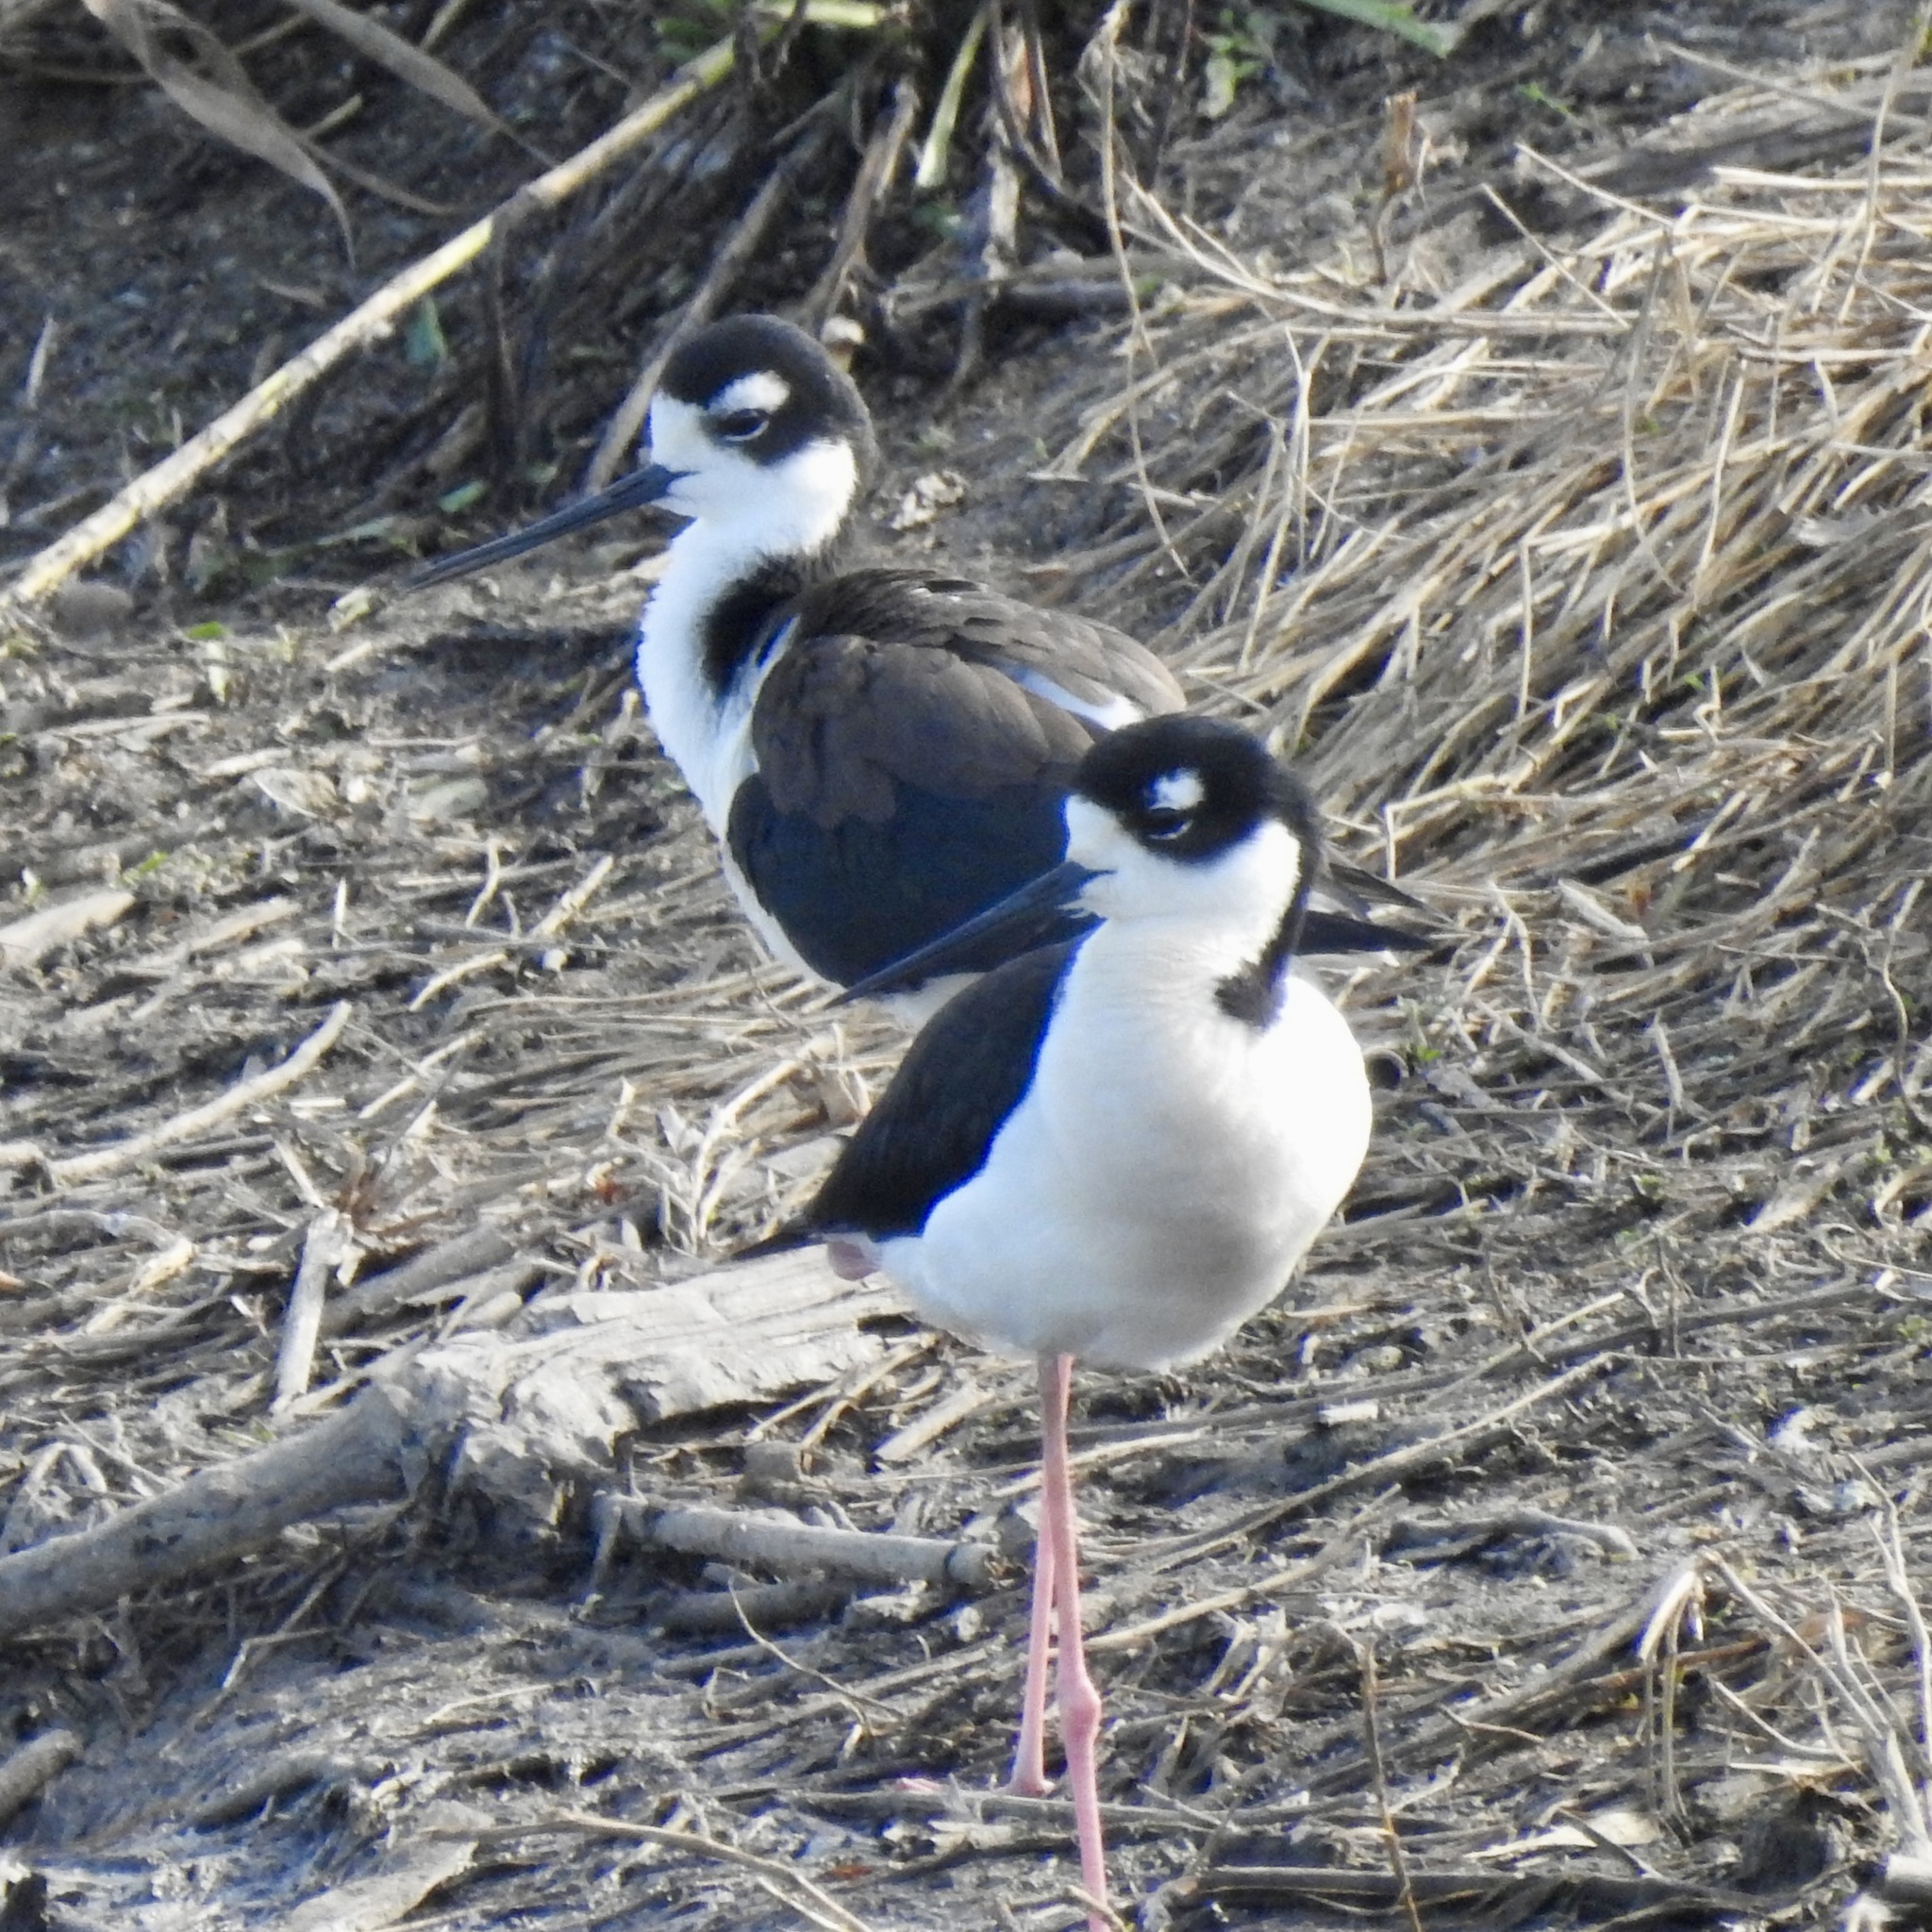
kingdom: Animalia
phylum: Chordata
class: Aves
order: Charadriiformes
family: Recurvirostridae
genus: Himantopus
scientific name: Himantopus mexicanus
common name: Black-necked stilt
